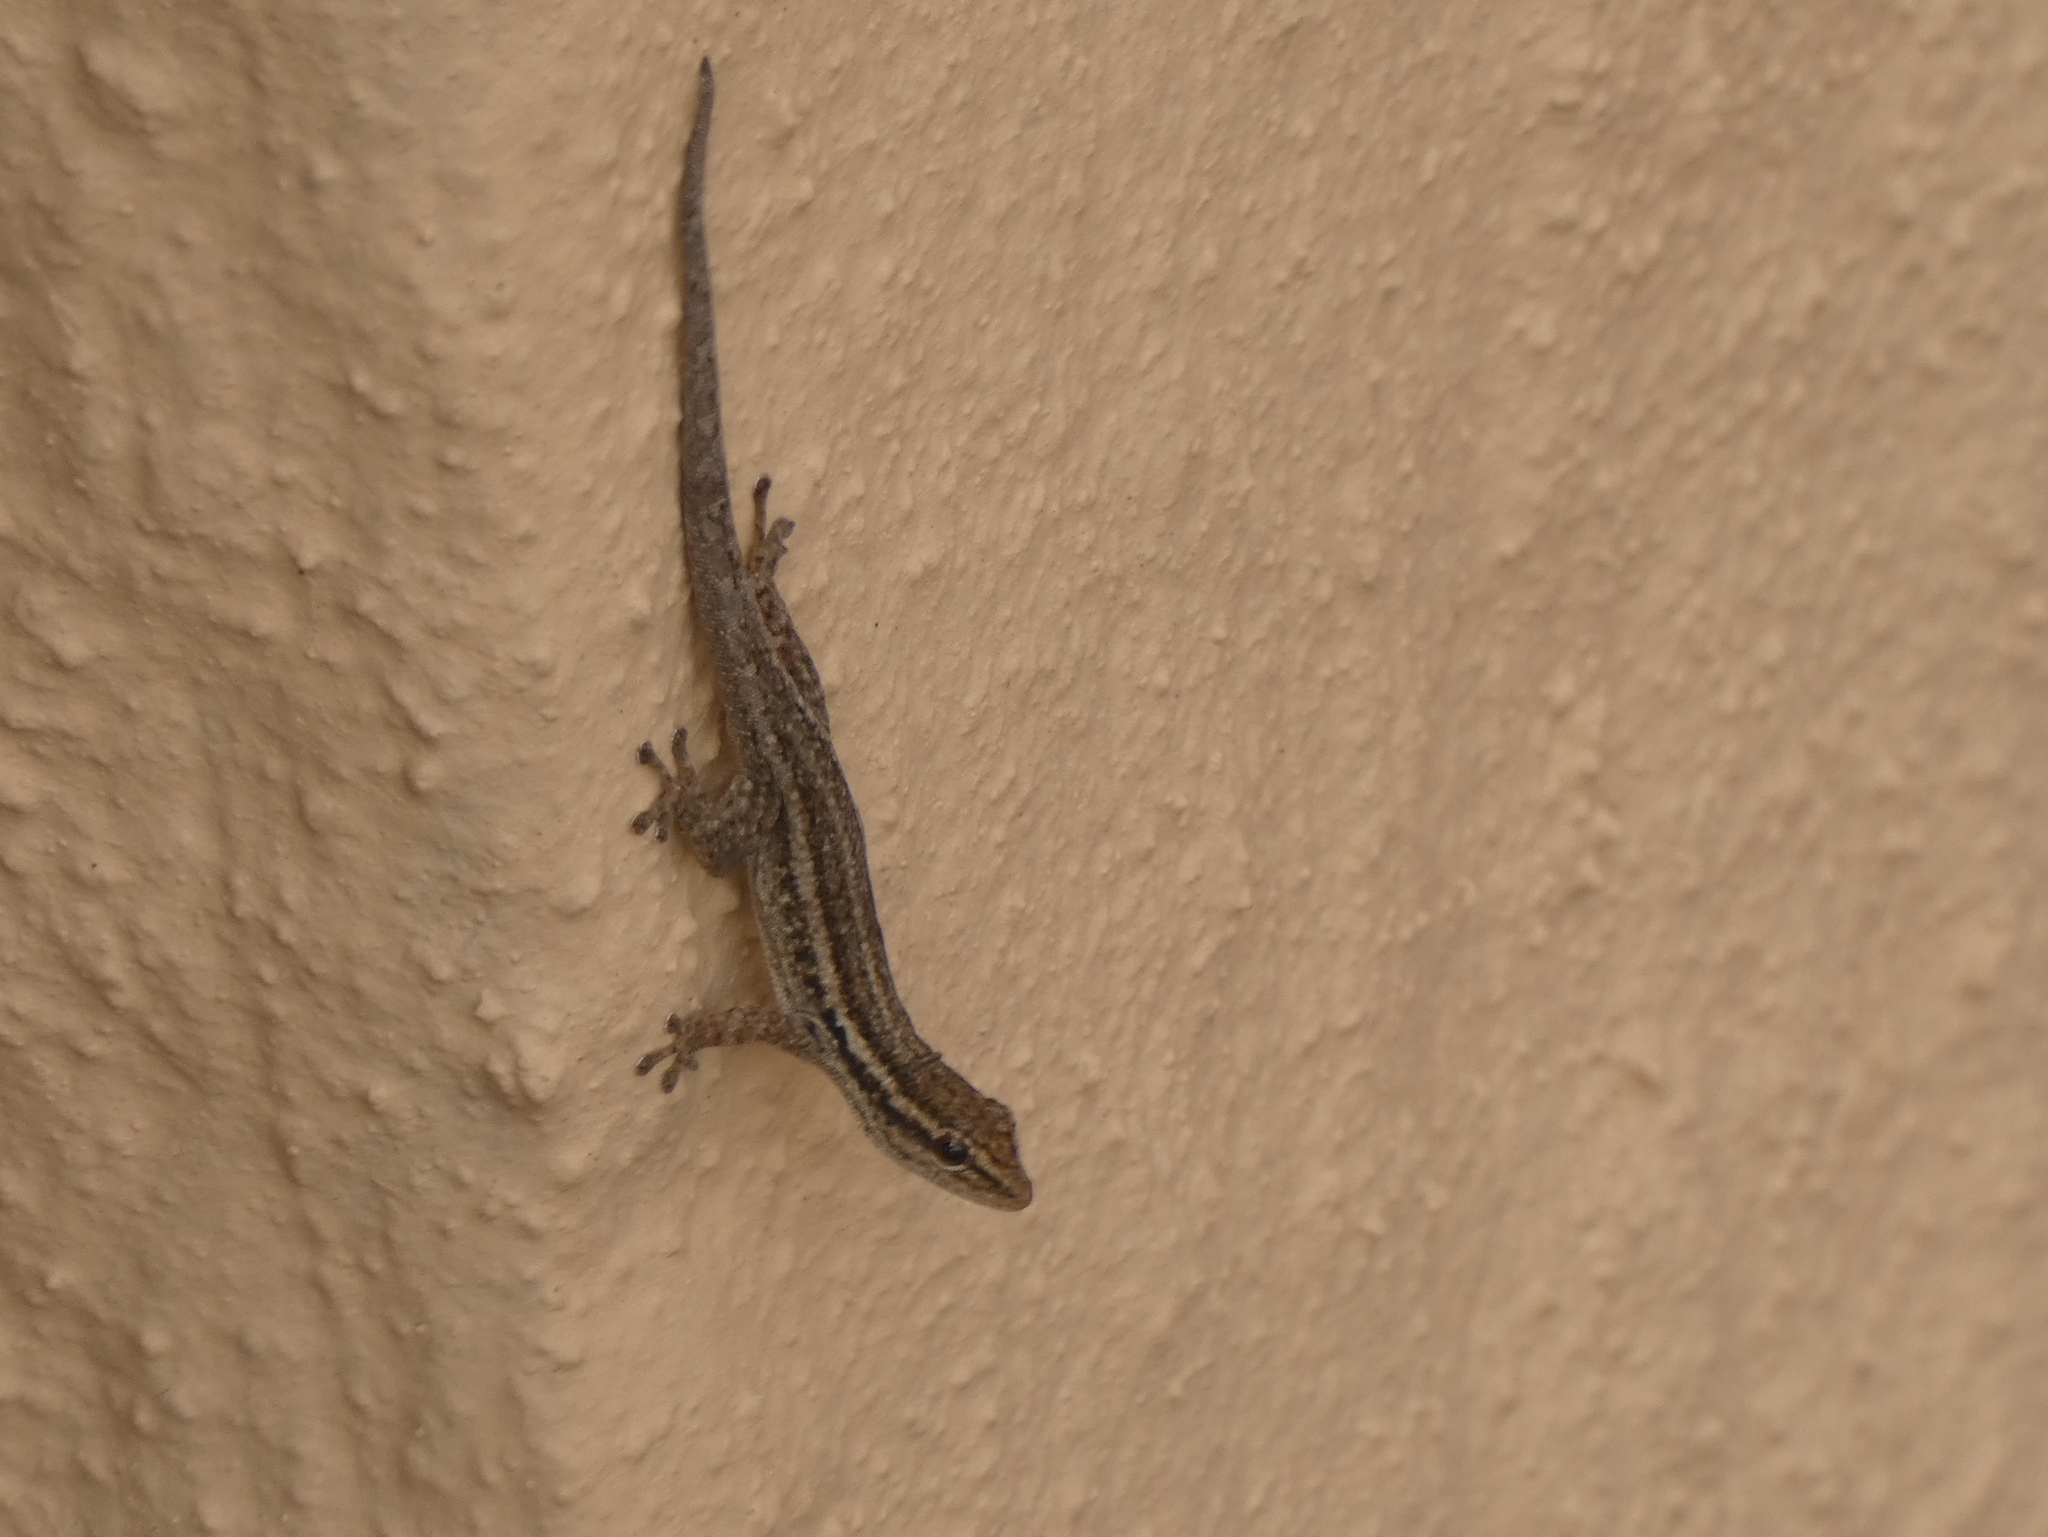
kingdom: Animalia
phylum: Chordata
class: Squamata
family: Gekkonidae
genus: Lygodactylus
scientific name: Lygodactylus capensis
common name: Cape dwarf gecko
